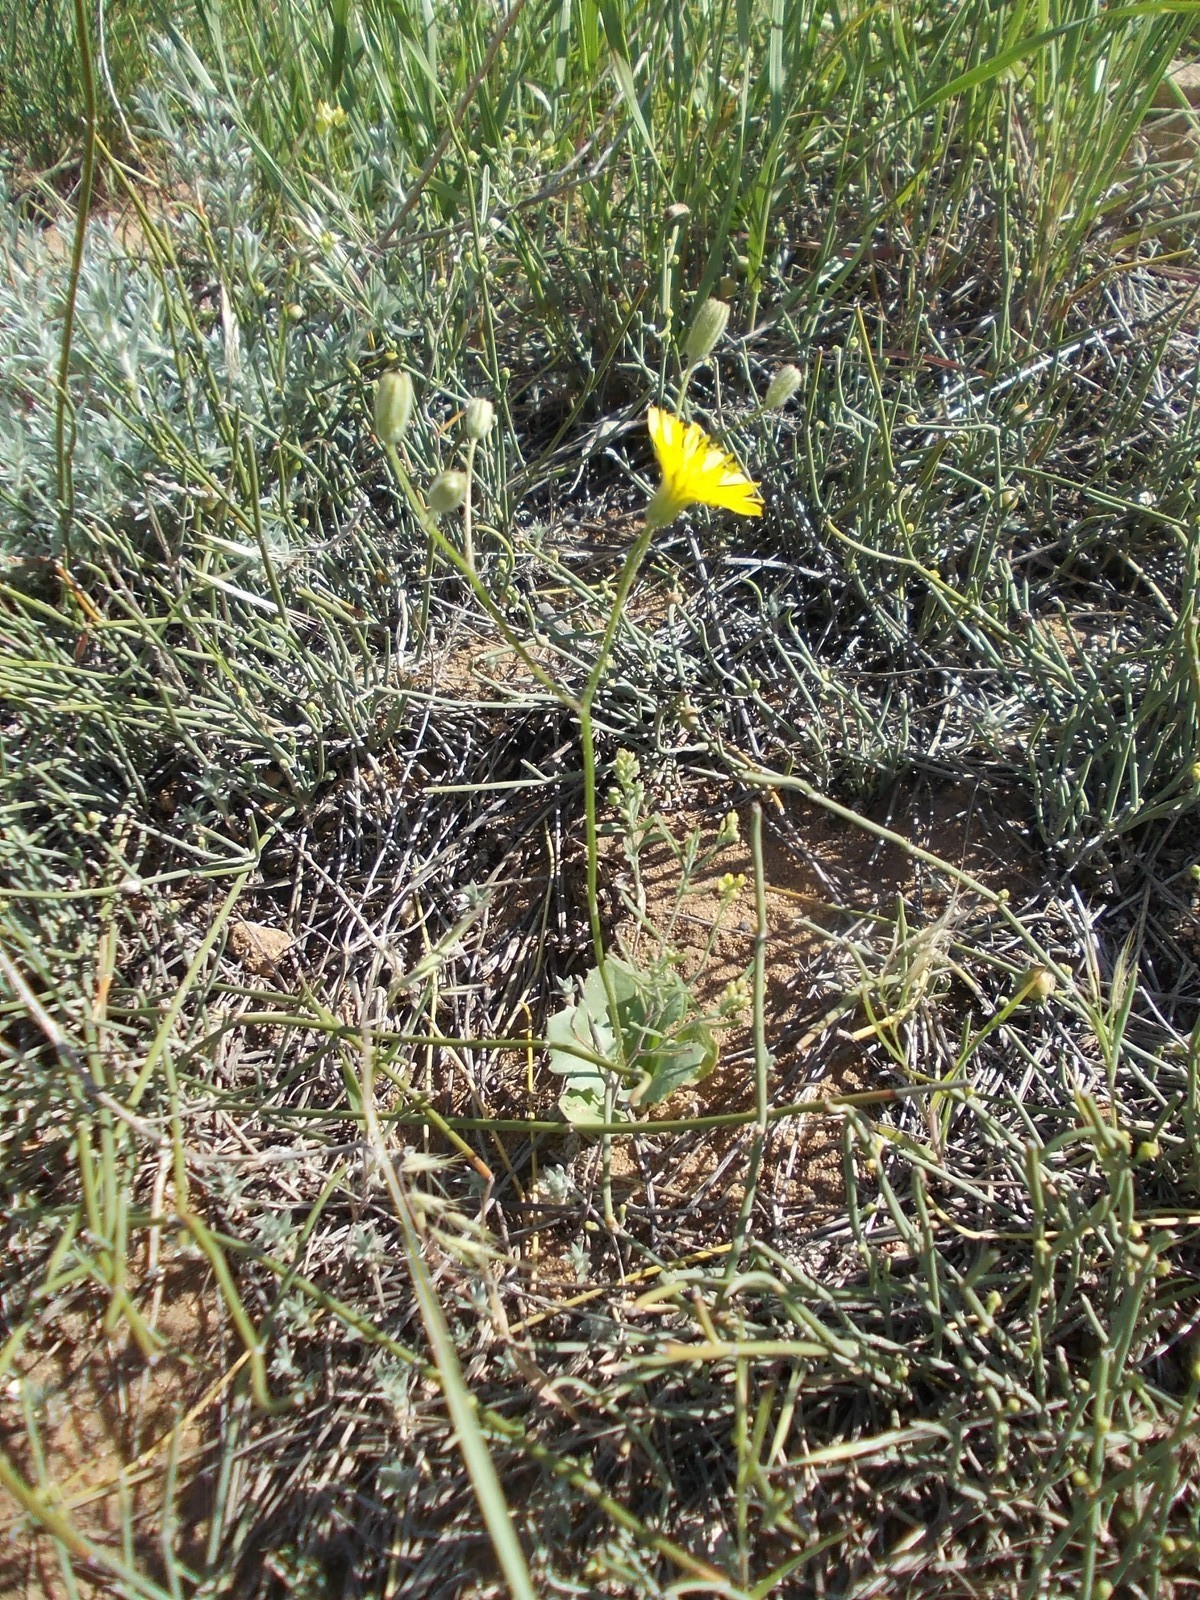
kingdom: Plantae
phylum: Tracheophyta
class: Magnoliopsida
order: Asterales
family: Asteraceae
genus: Crepis
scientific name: Crepis sancta
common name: Hawk's-beard
